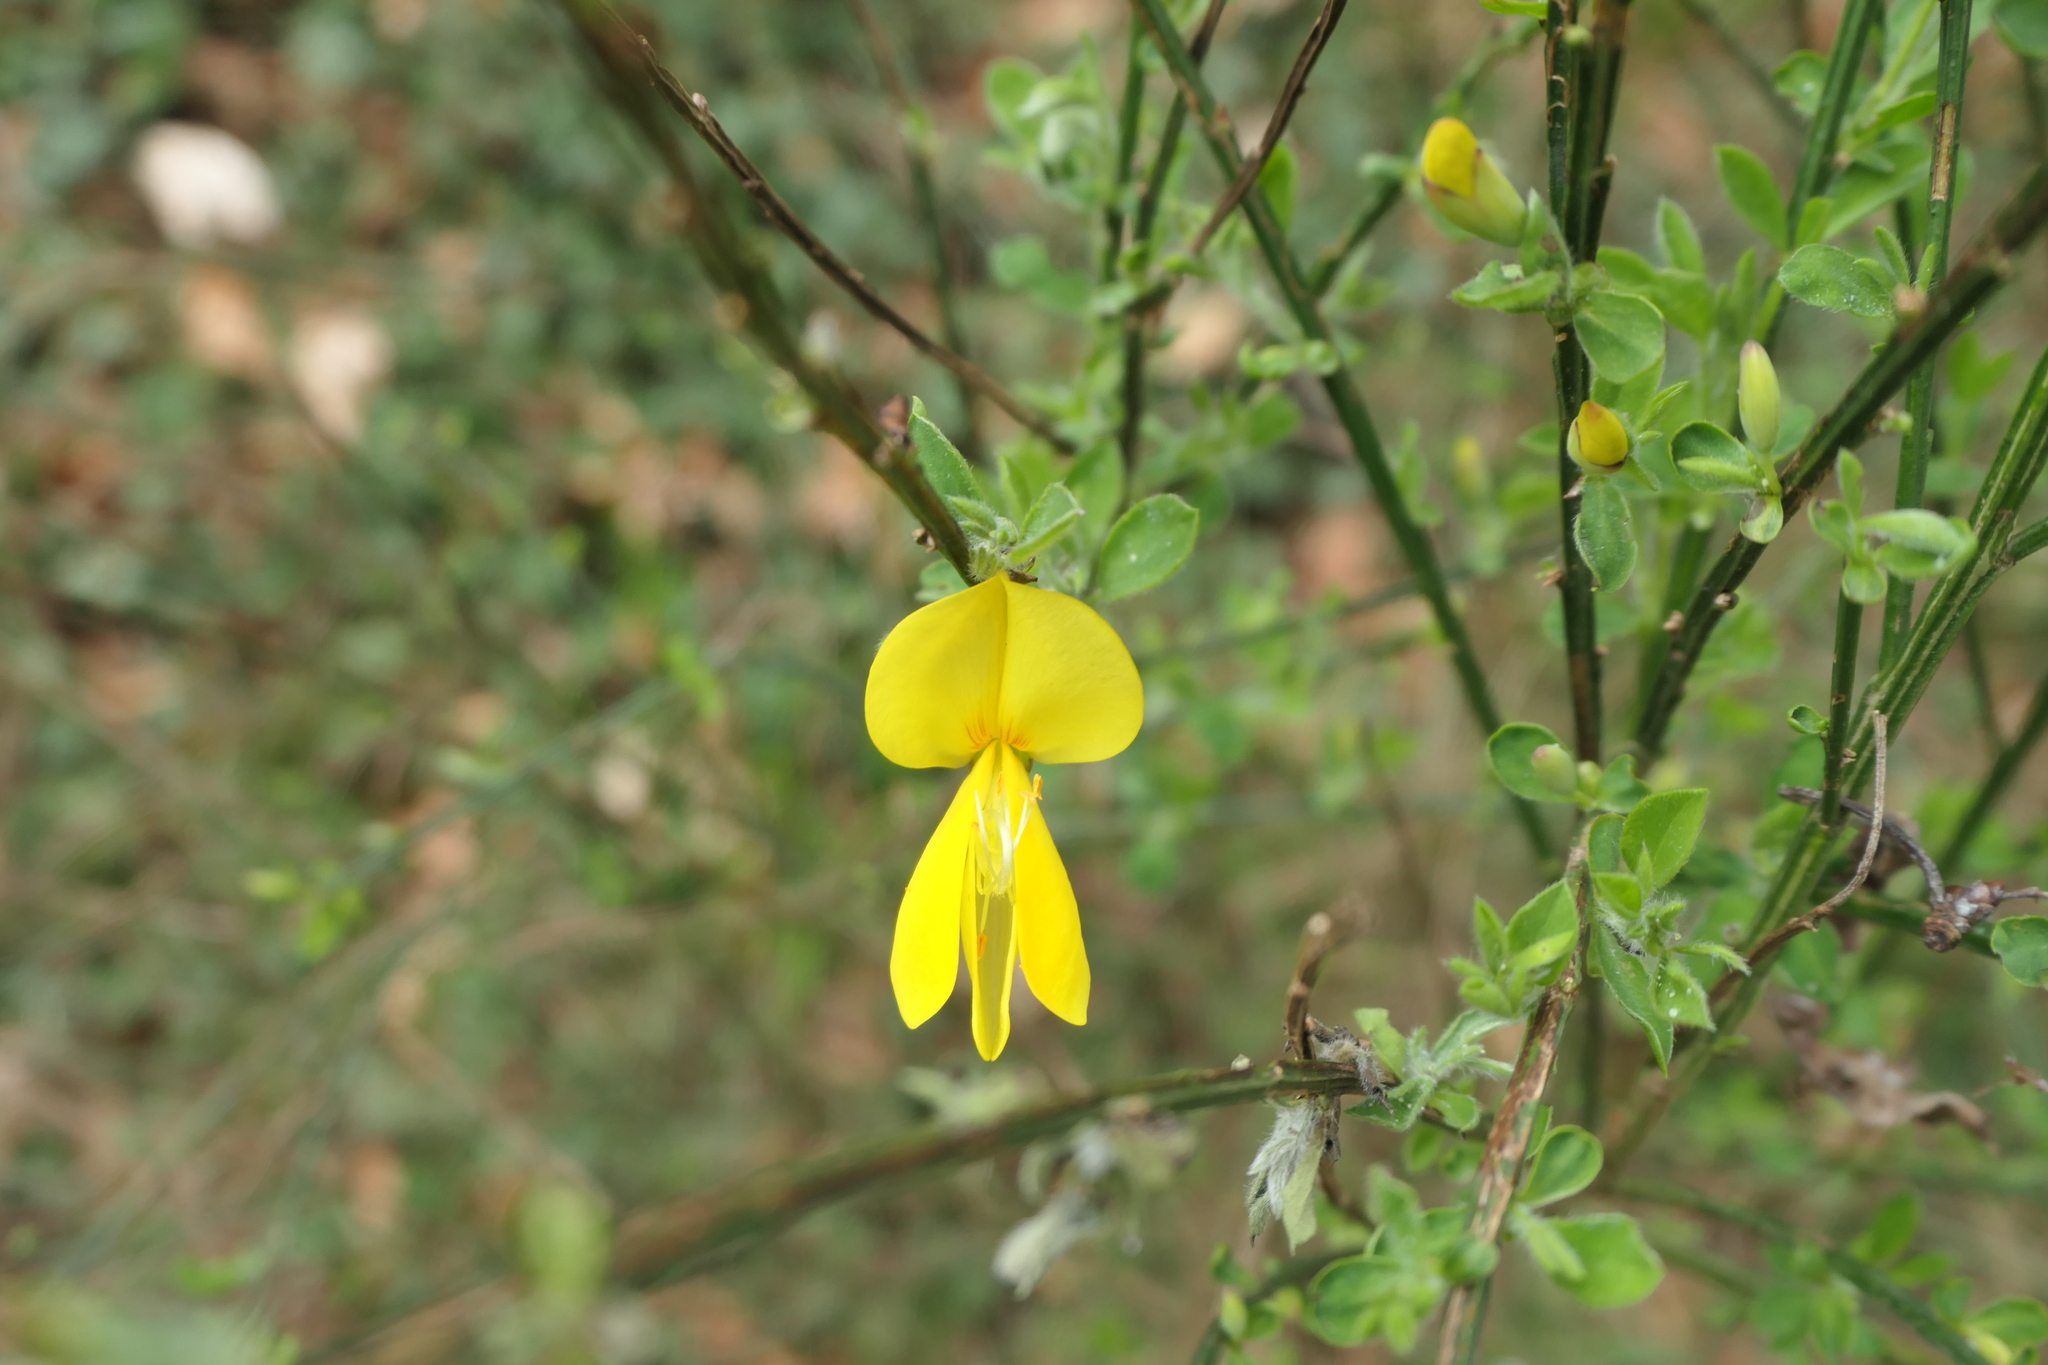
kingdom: Plantae
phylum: Tracheophyta
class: Magnoliopsida
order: Fabales
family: Fabaceae
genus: Cytisus
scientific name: Cytisus scoparius
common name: Scotch broom
